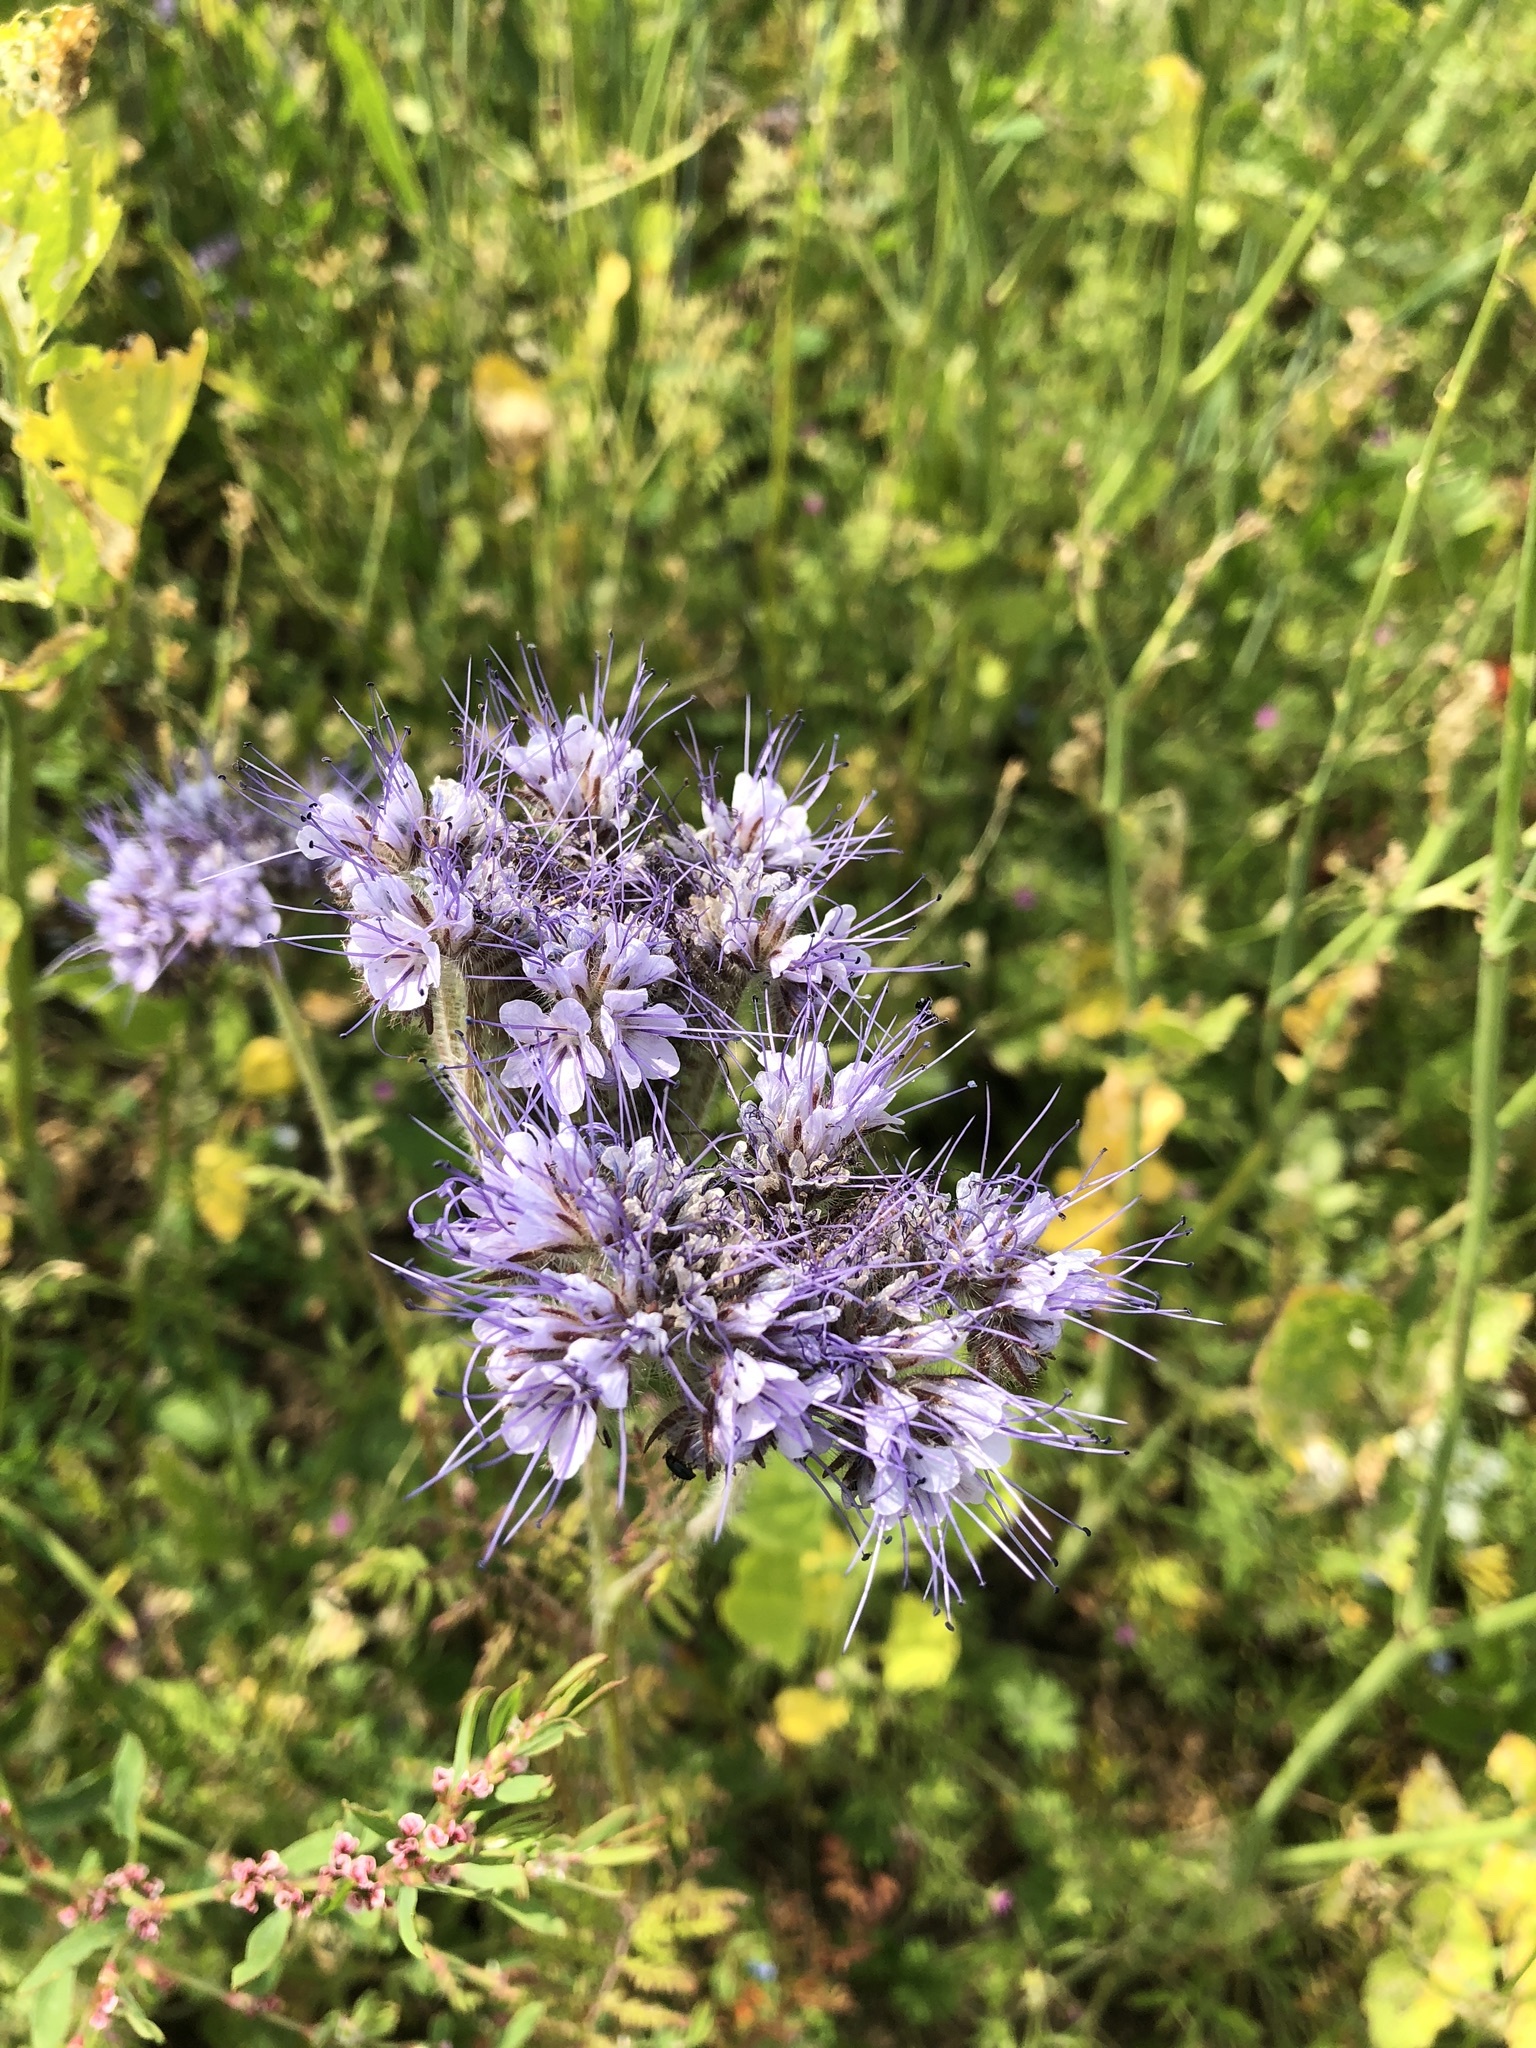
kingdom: Plantae
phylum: Tracheophyta
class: Magnoliopsida
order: Boraginales
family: Hydrophyllaceae
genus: Phacelia
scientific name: Phacelia tanacetifolia
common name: Phacelia
